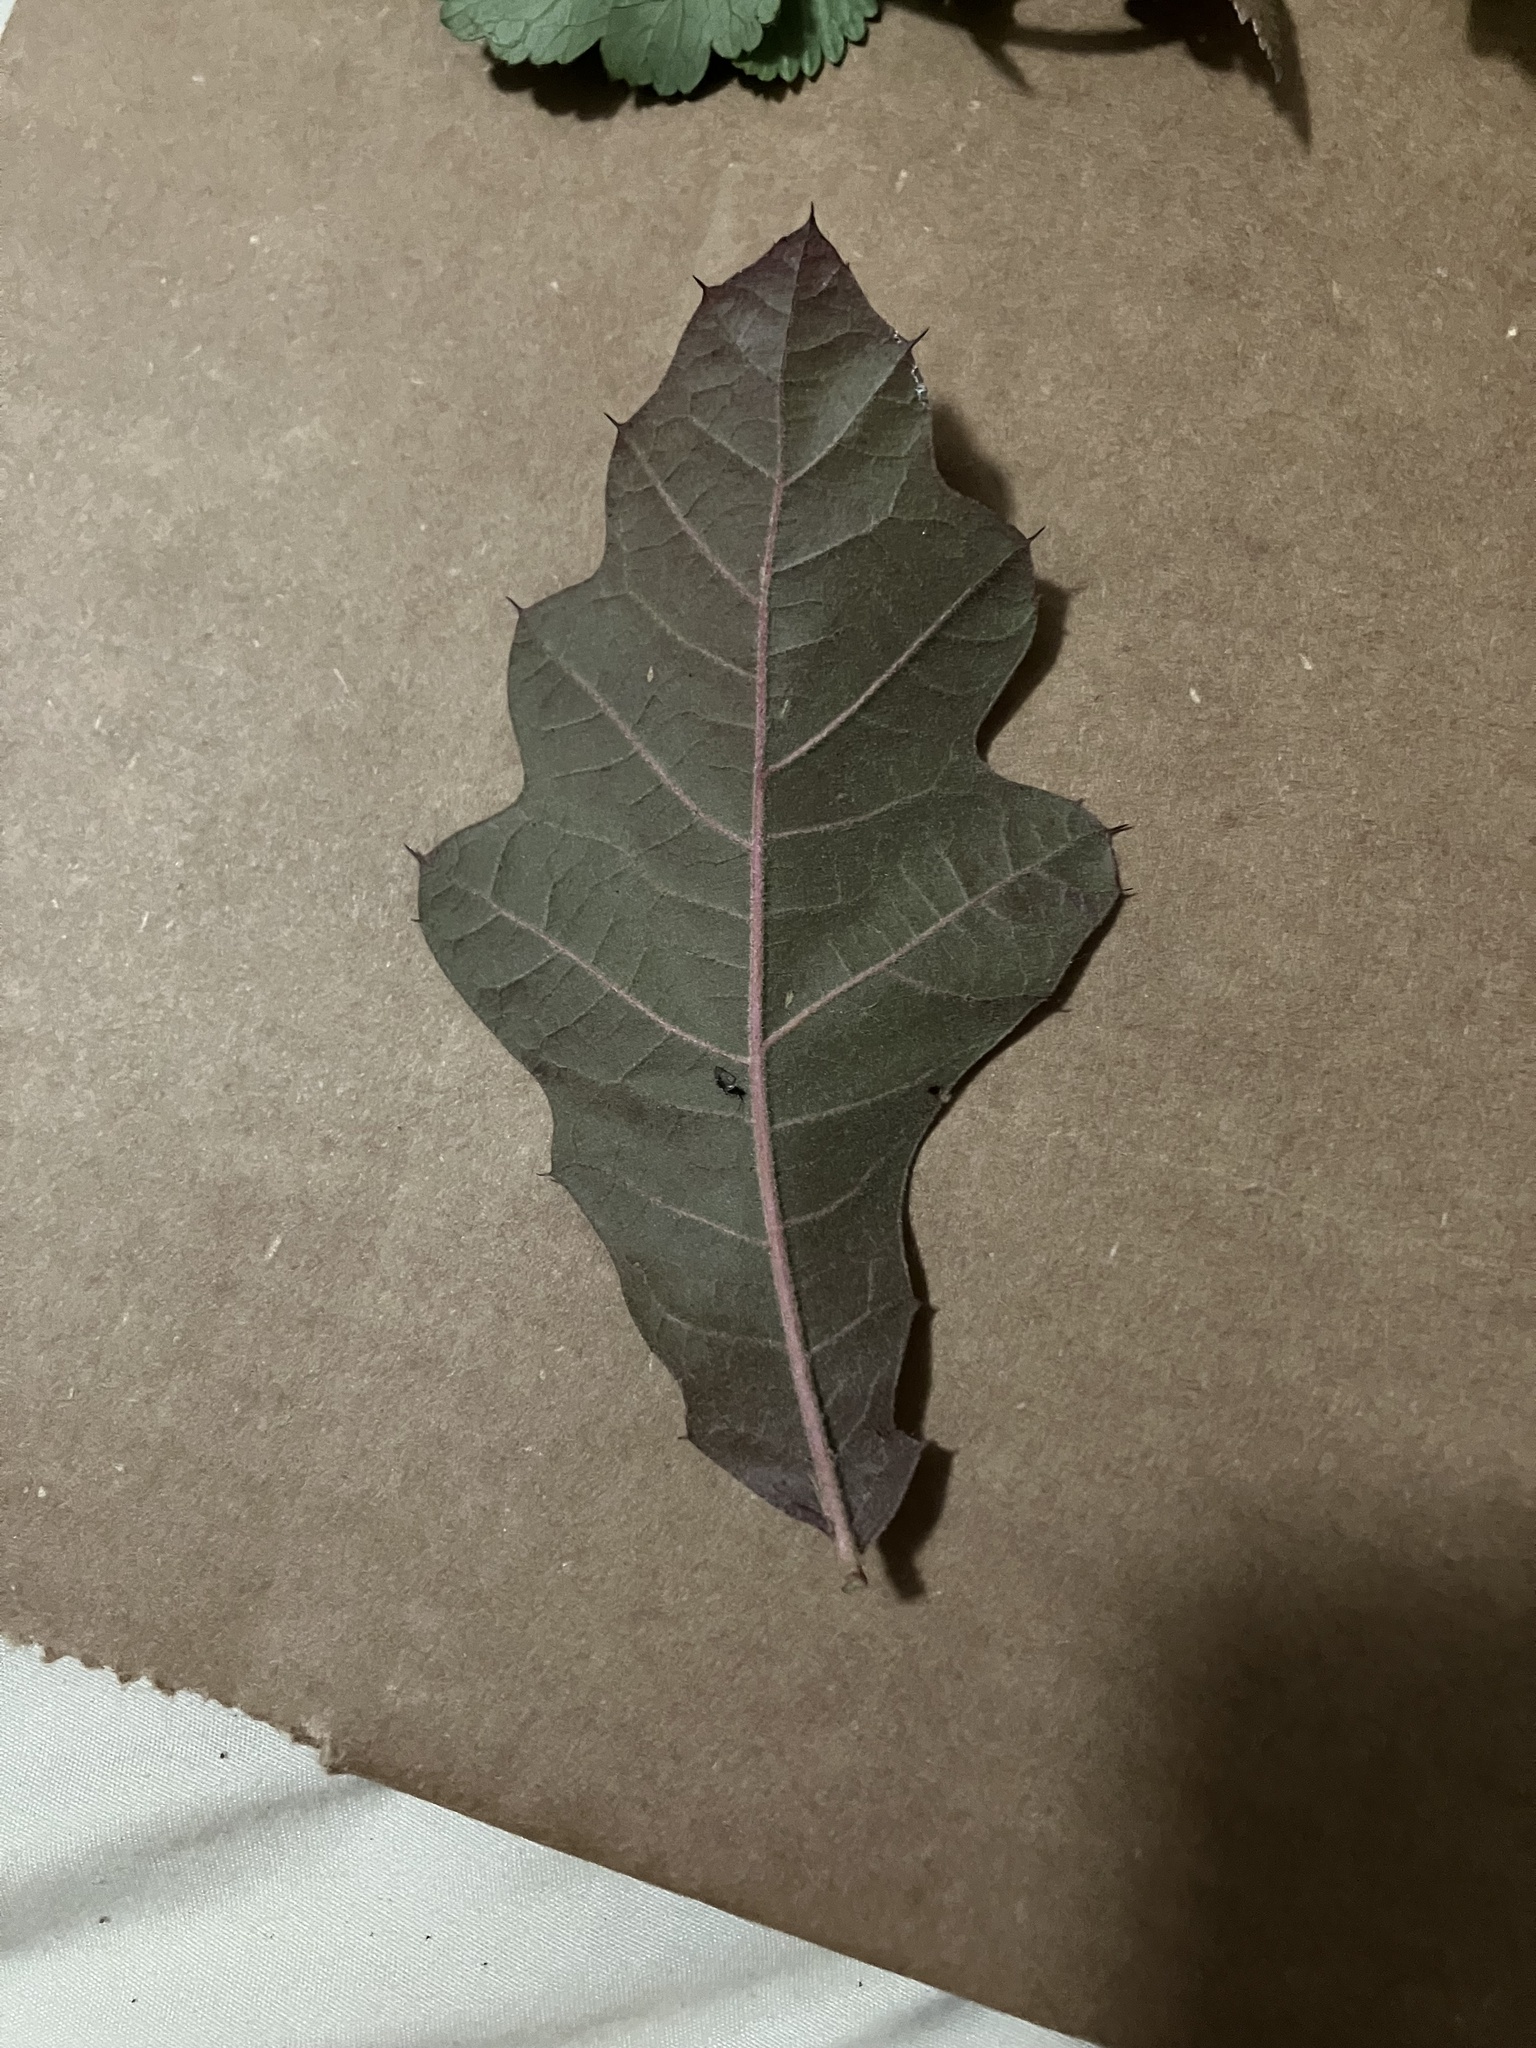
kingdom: Plantae
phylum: Tracheophyta
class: Magnoliopsida
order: Fagales
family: Fagaceae
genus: Quercus
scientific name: Quercus velutina
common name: Black oak
